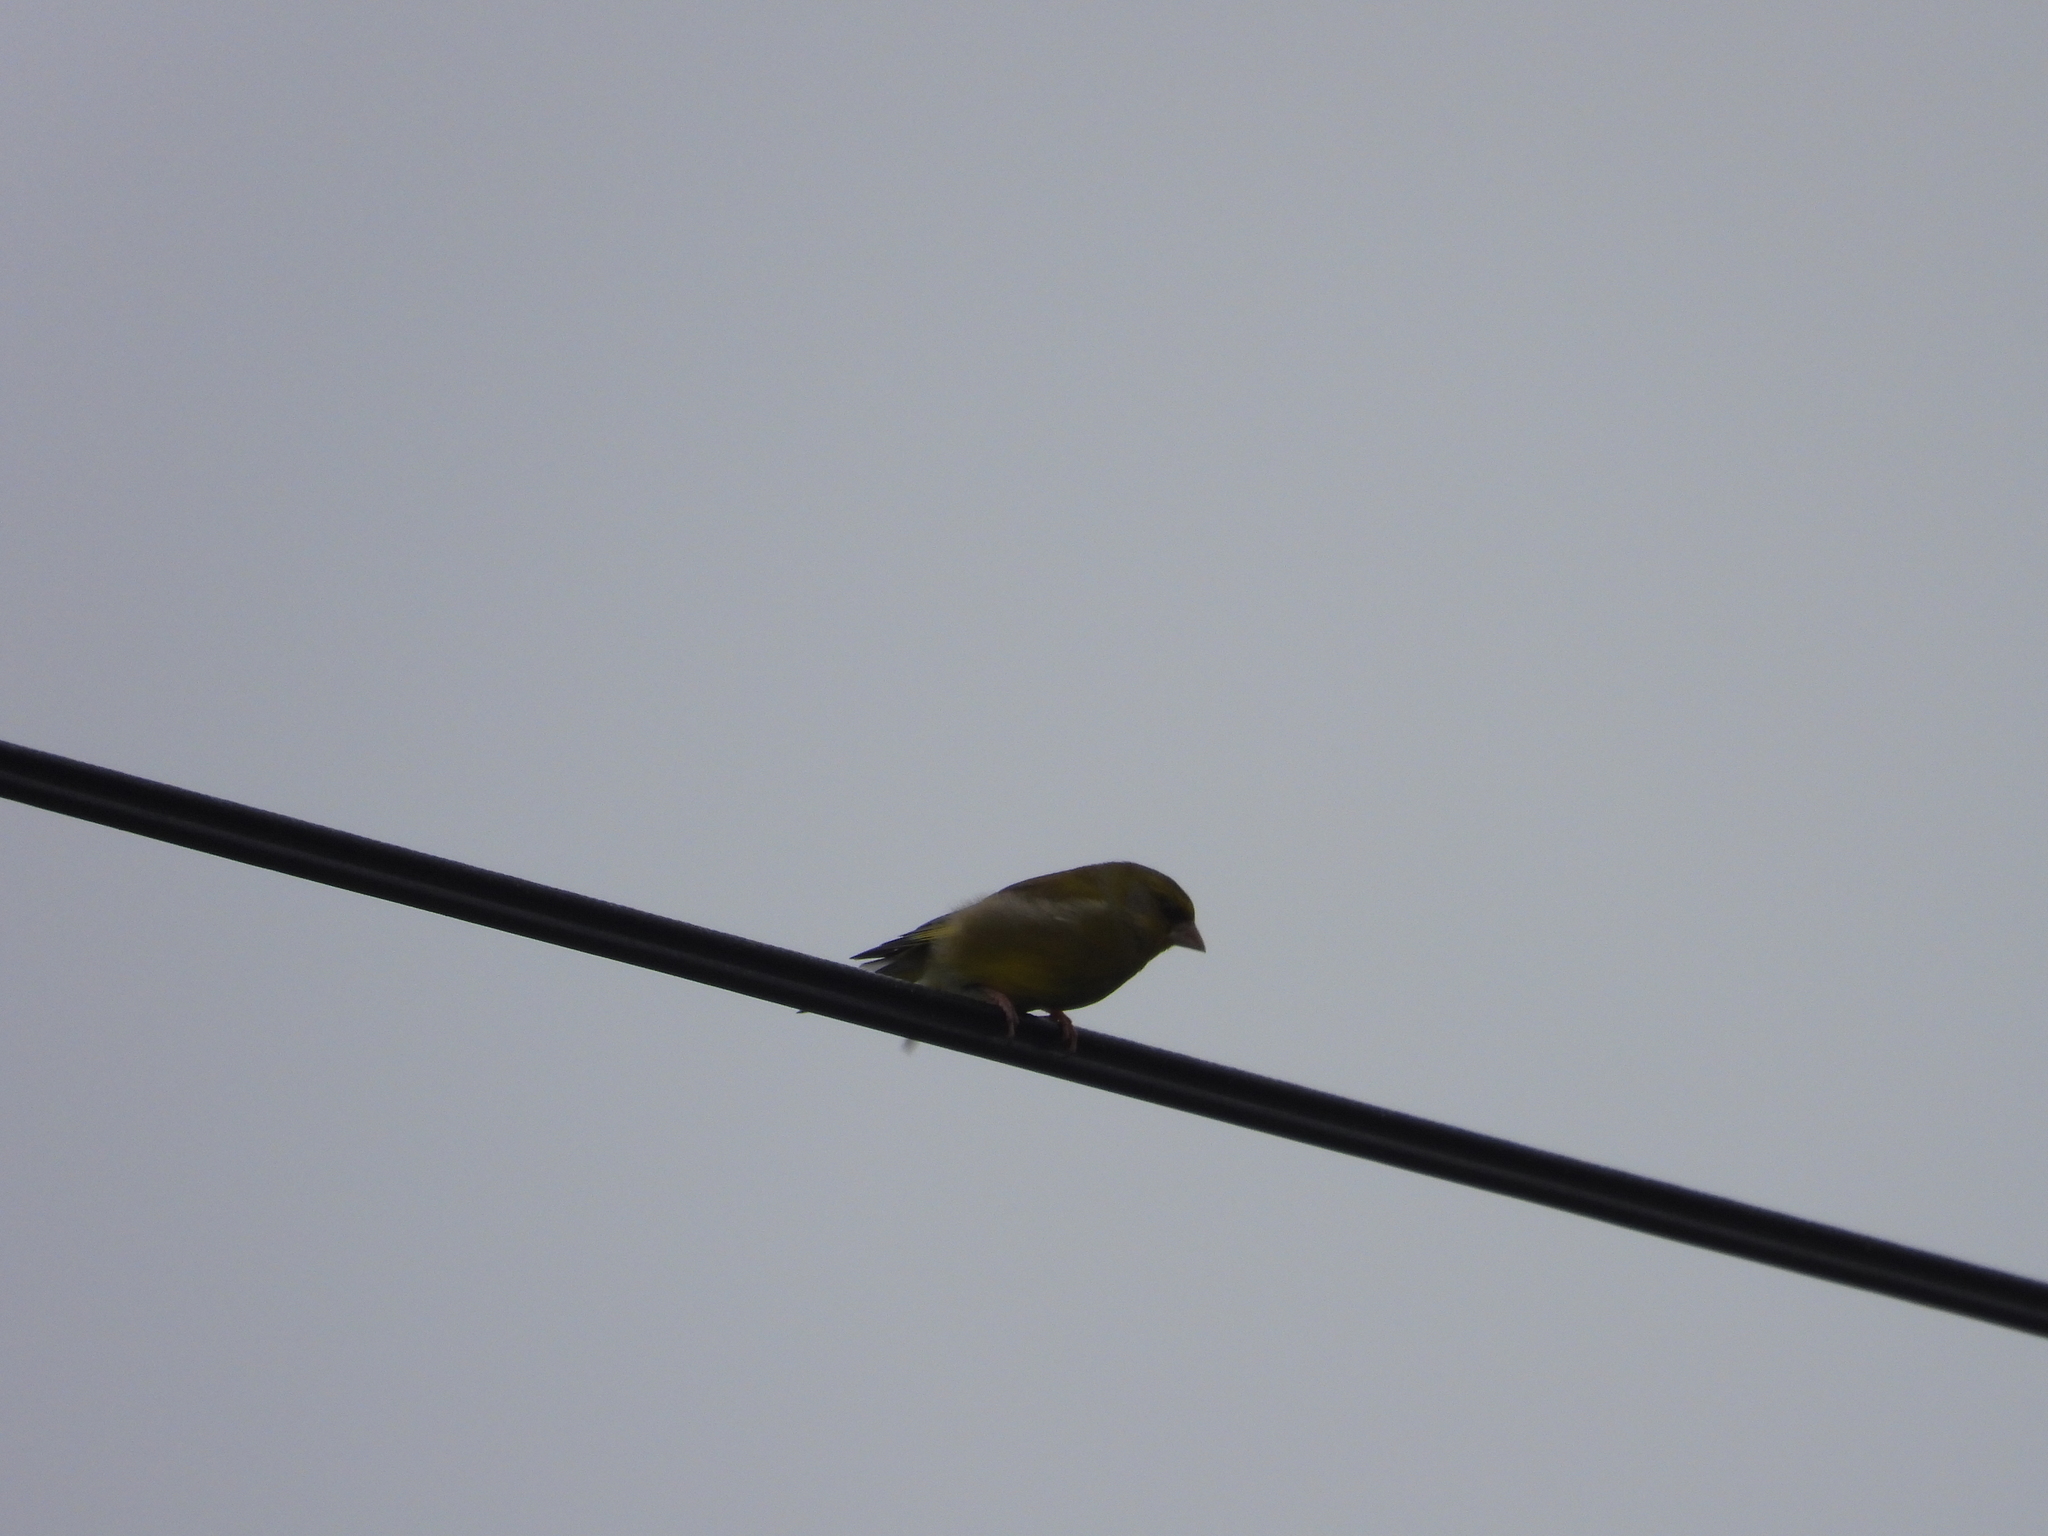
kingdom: Plantae
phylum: Tracheophyta
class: Liliopsida
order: Poales
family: Poaceae
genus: Chloris
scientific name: Chloris chloris
